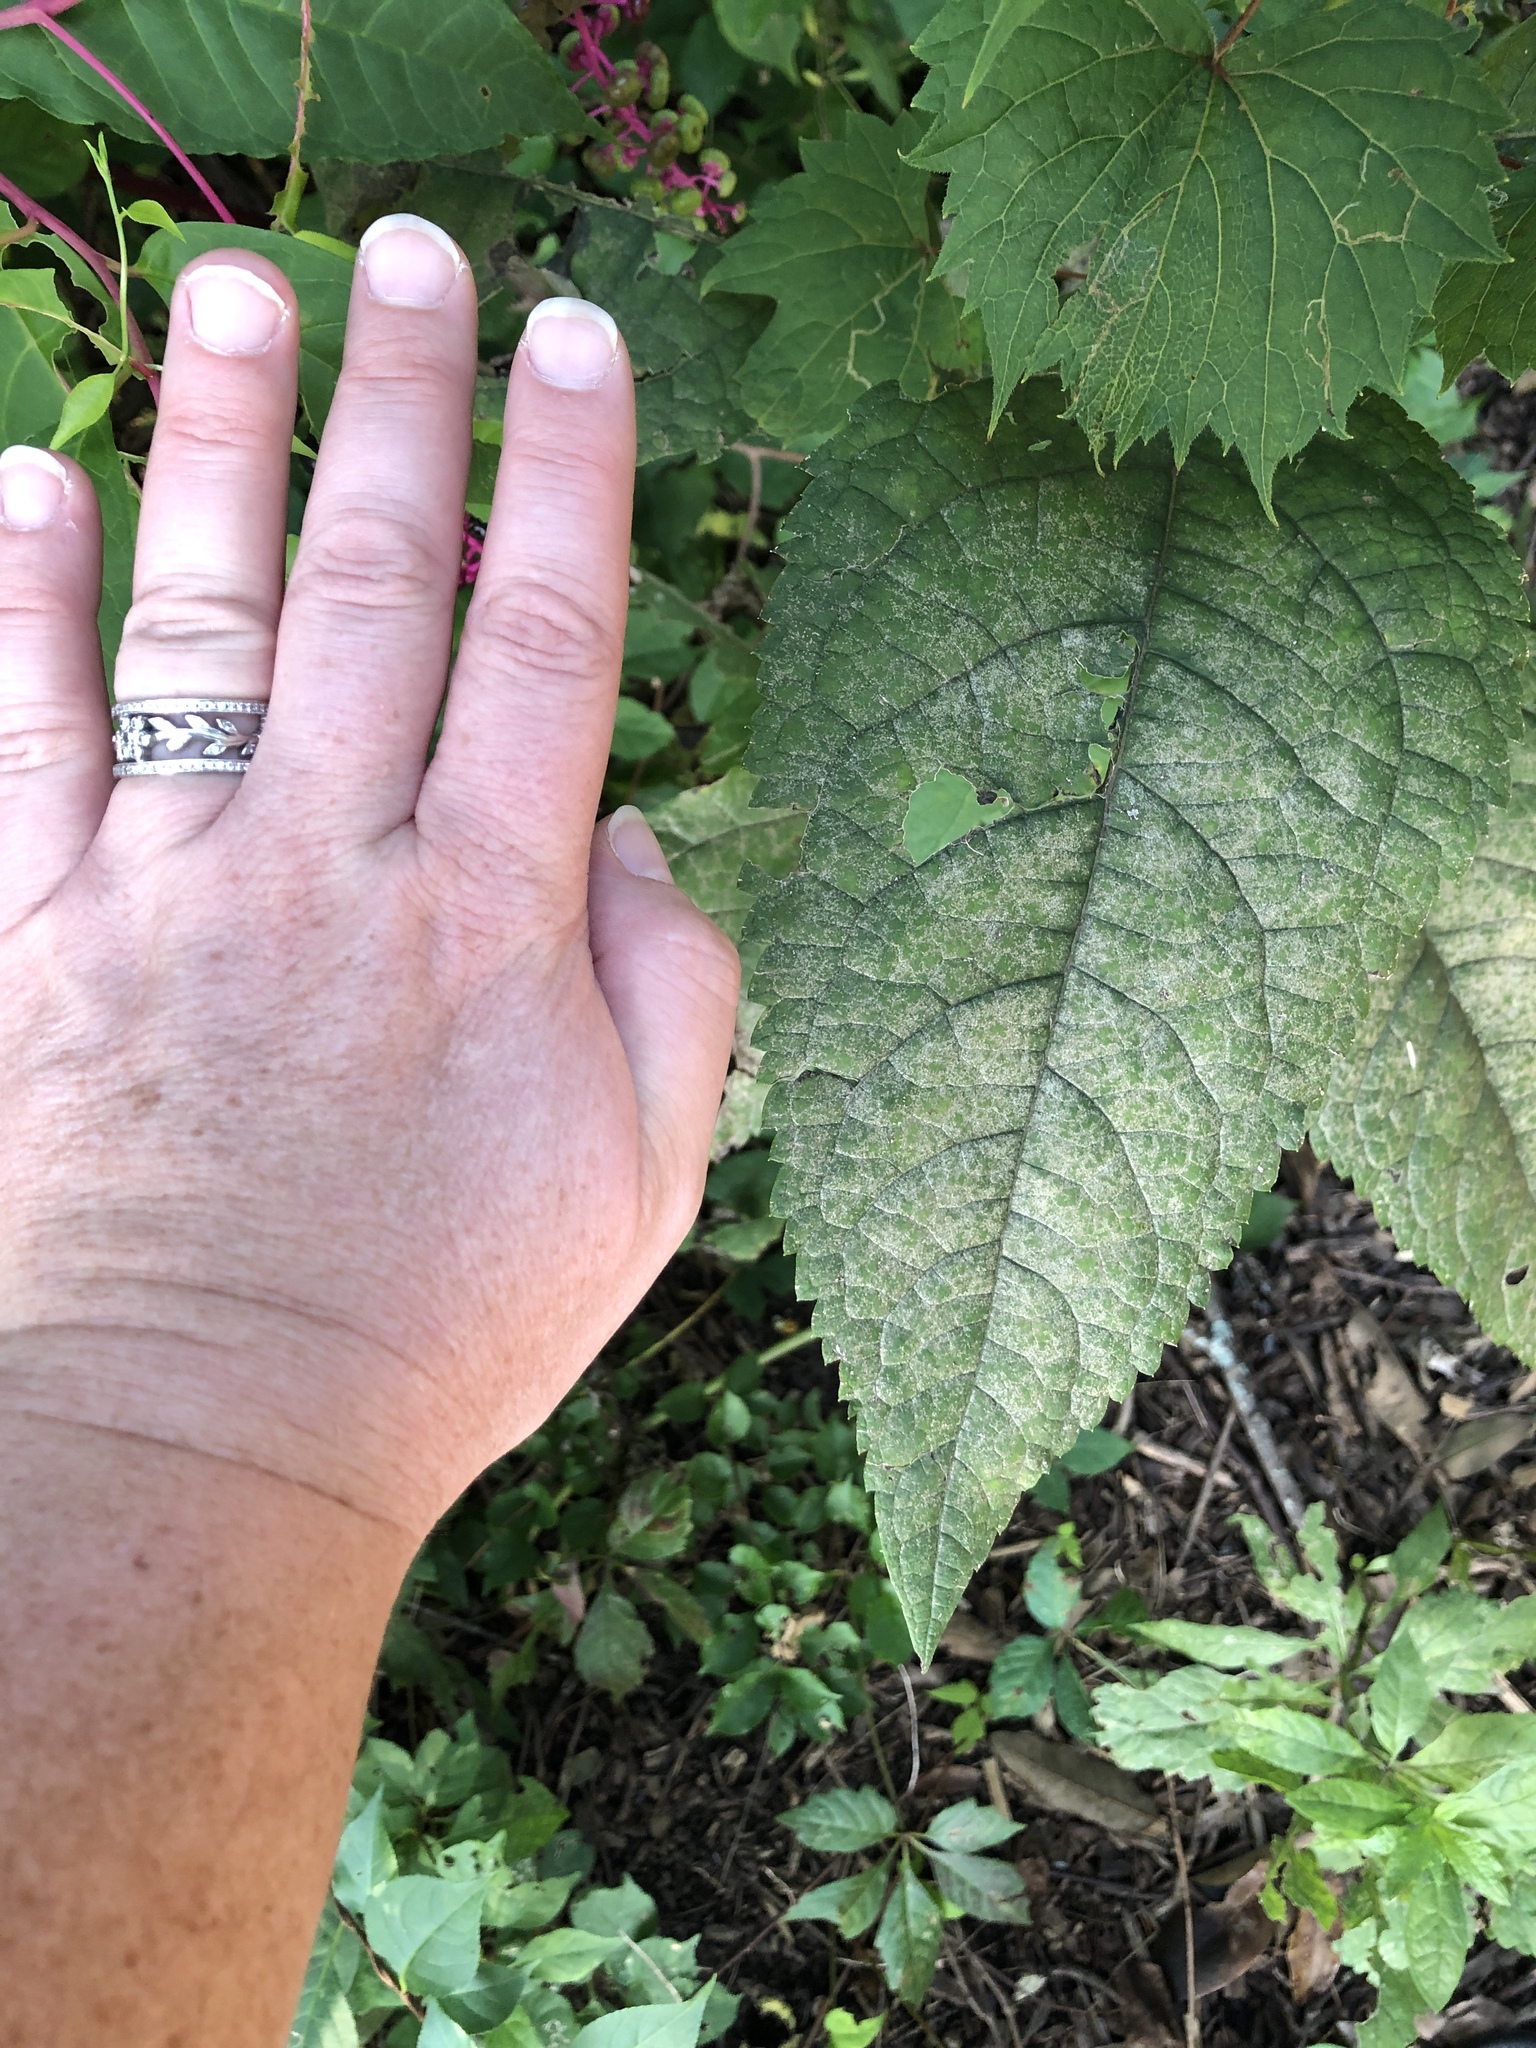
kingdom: Plantae
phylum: Tracheophyta
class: Magnoliopsida
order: Asterales
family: Asteraceae
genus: Eutrochium
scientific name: Eutrochium purpureum
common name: Gravelroot
